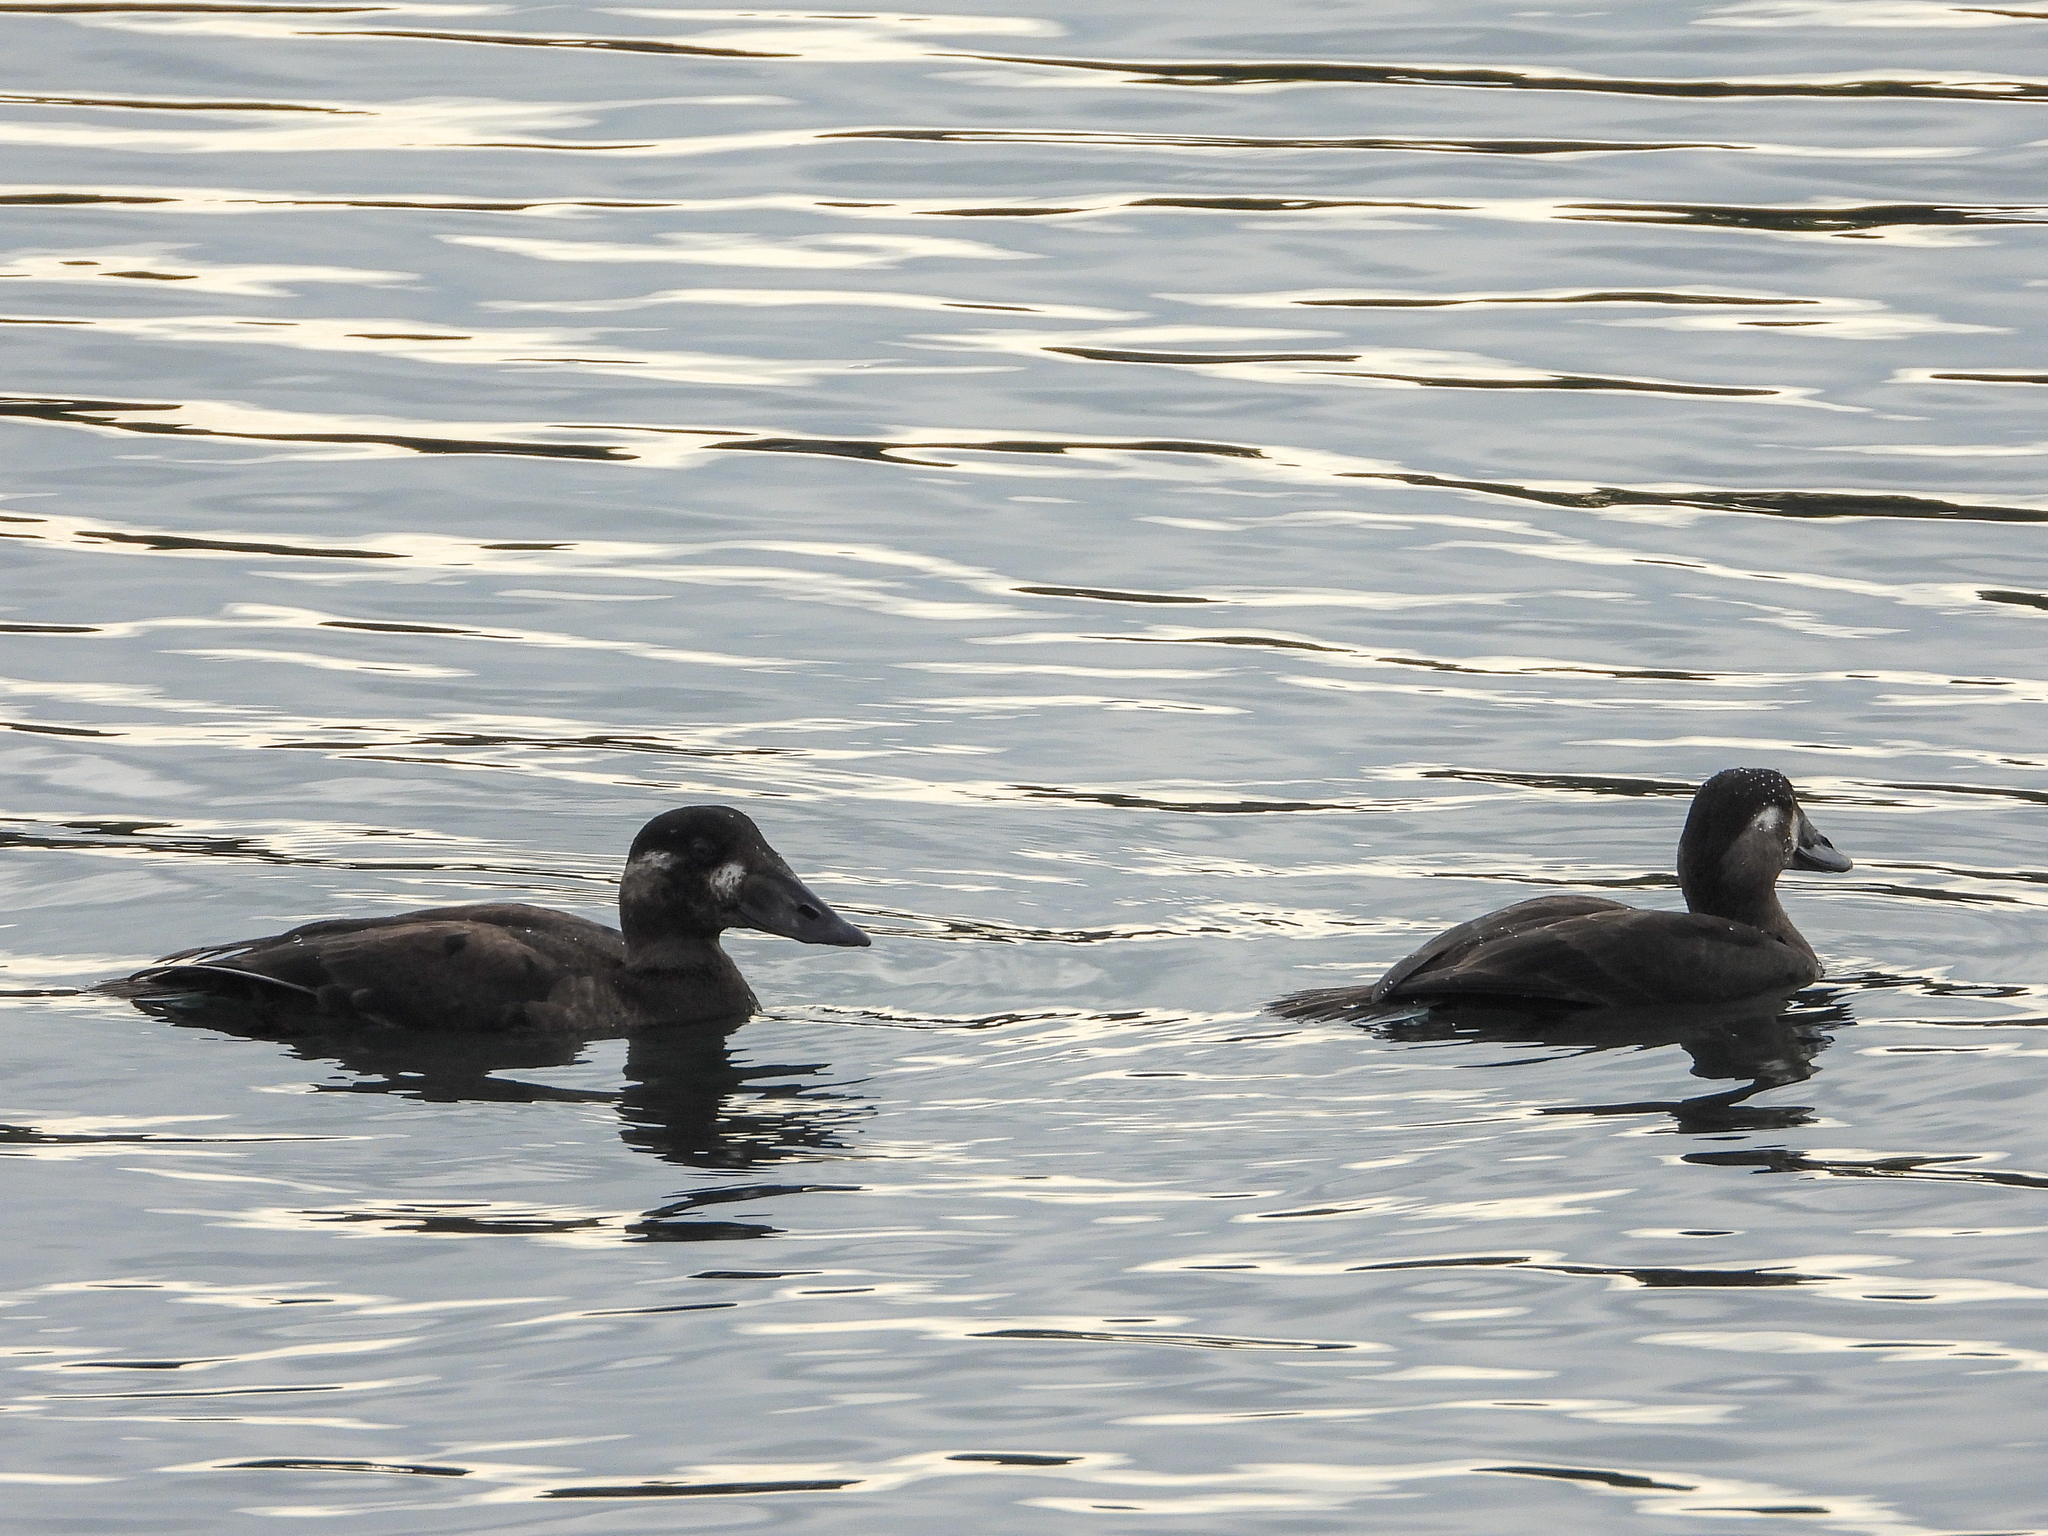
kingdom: Animalia
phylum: Chordata
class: Aves
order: Anseriformes
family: Anatidae
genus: Melanitta
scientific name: Melanitta perspicillata
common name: Surf scoter
